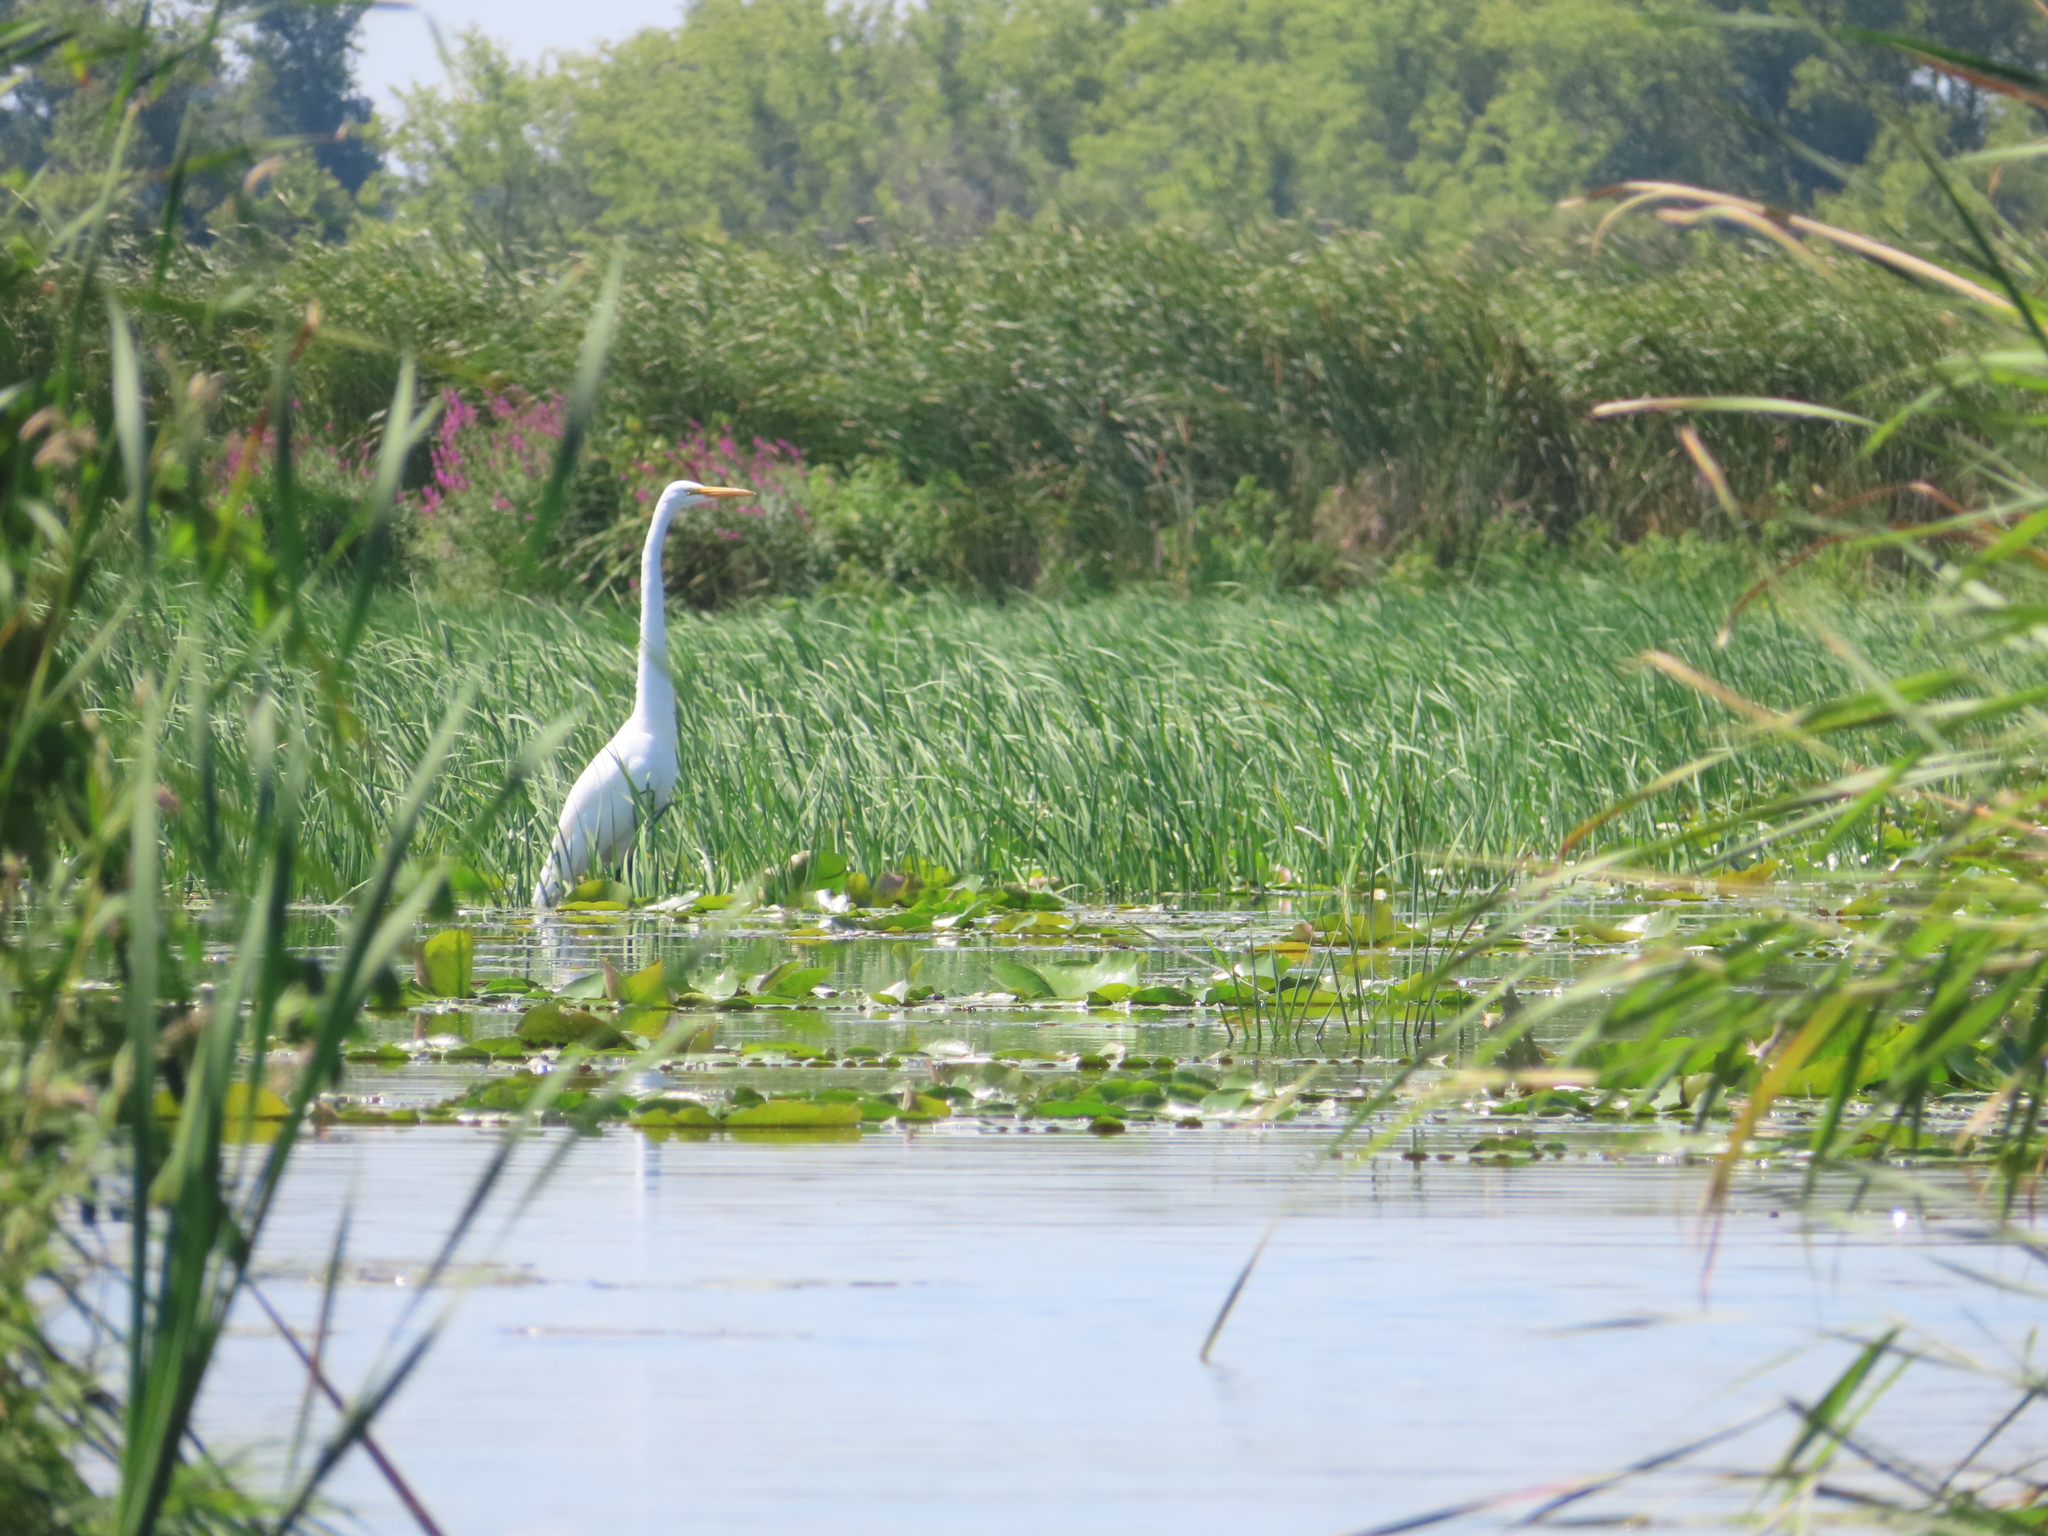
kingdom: Animalia
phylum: Chordata
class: Aves
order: Pelecaniformes
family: Ardeidae
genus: Ardea
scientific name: Ardea alba
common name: Great egret
